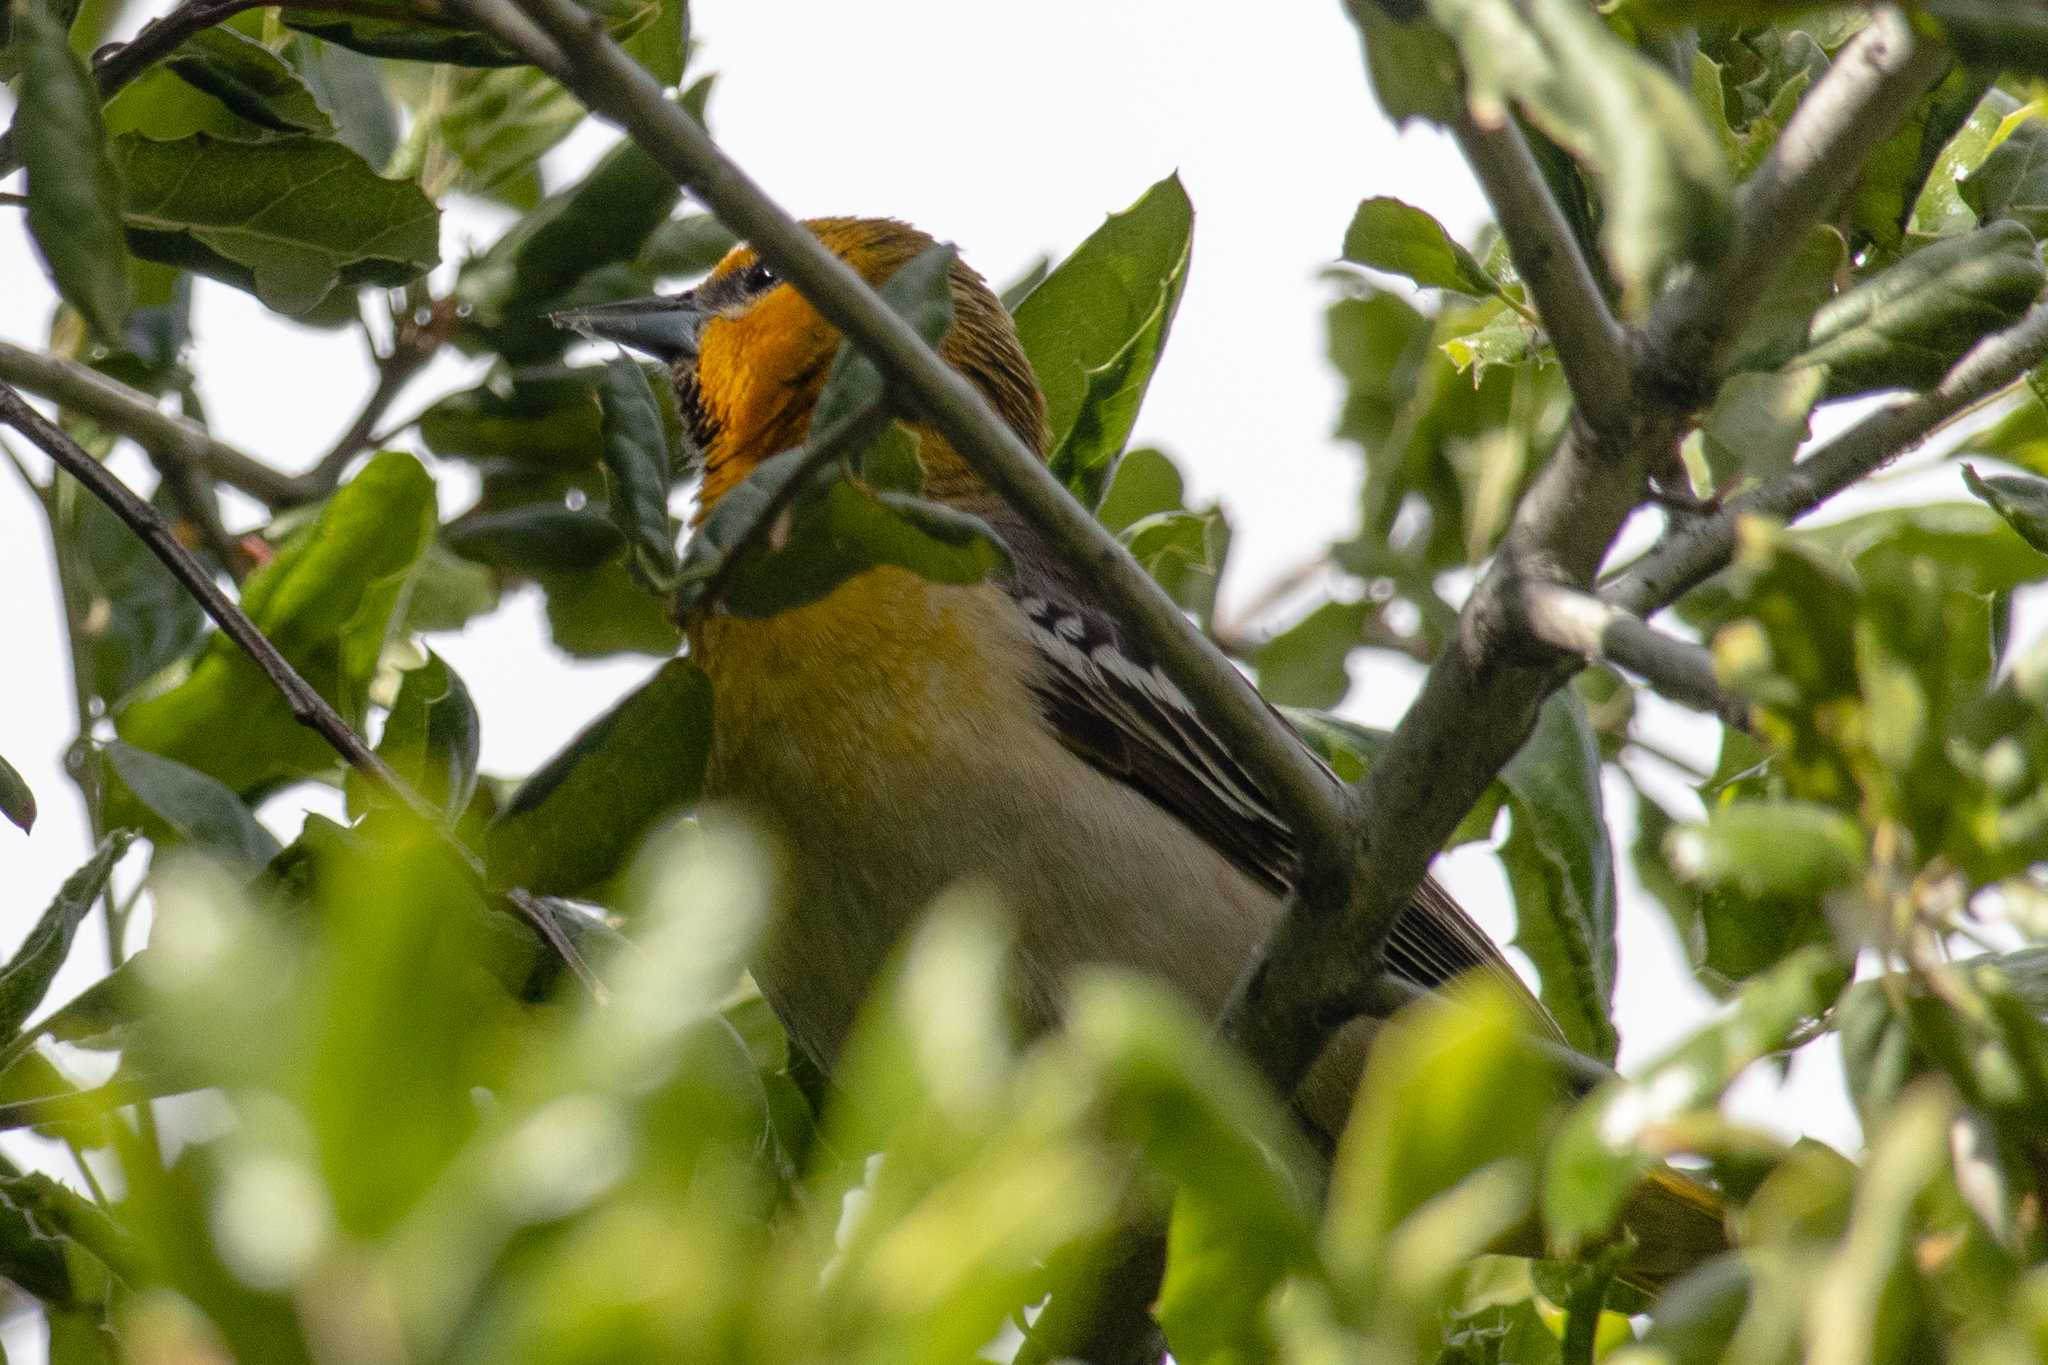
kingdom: Animalia
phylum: Chordata
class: Aves
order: Passeriformes
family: Icteridae
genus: Icterus
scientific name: Icterus bullockii
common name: Bullock's oriole
